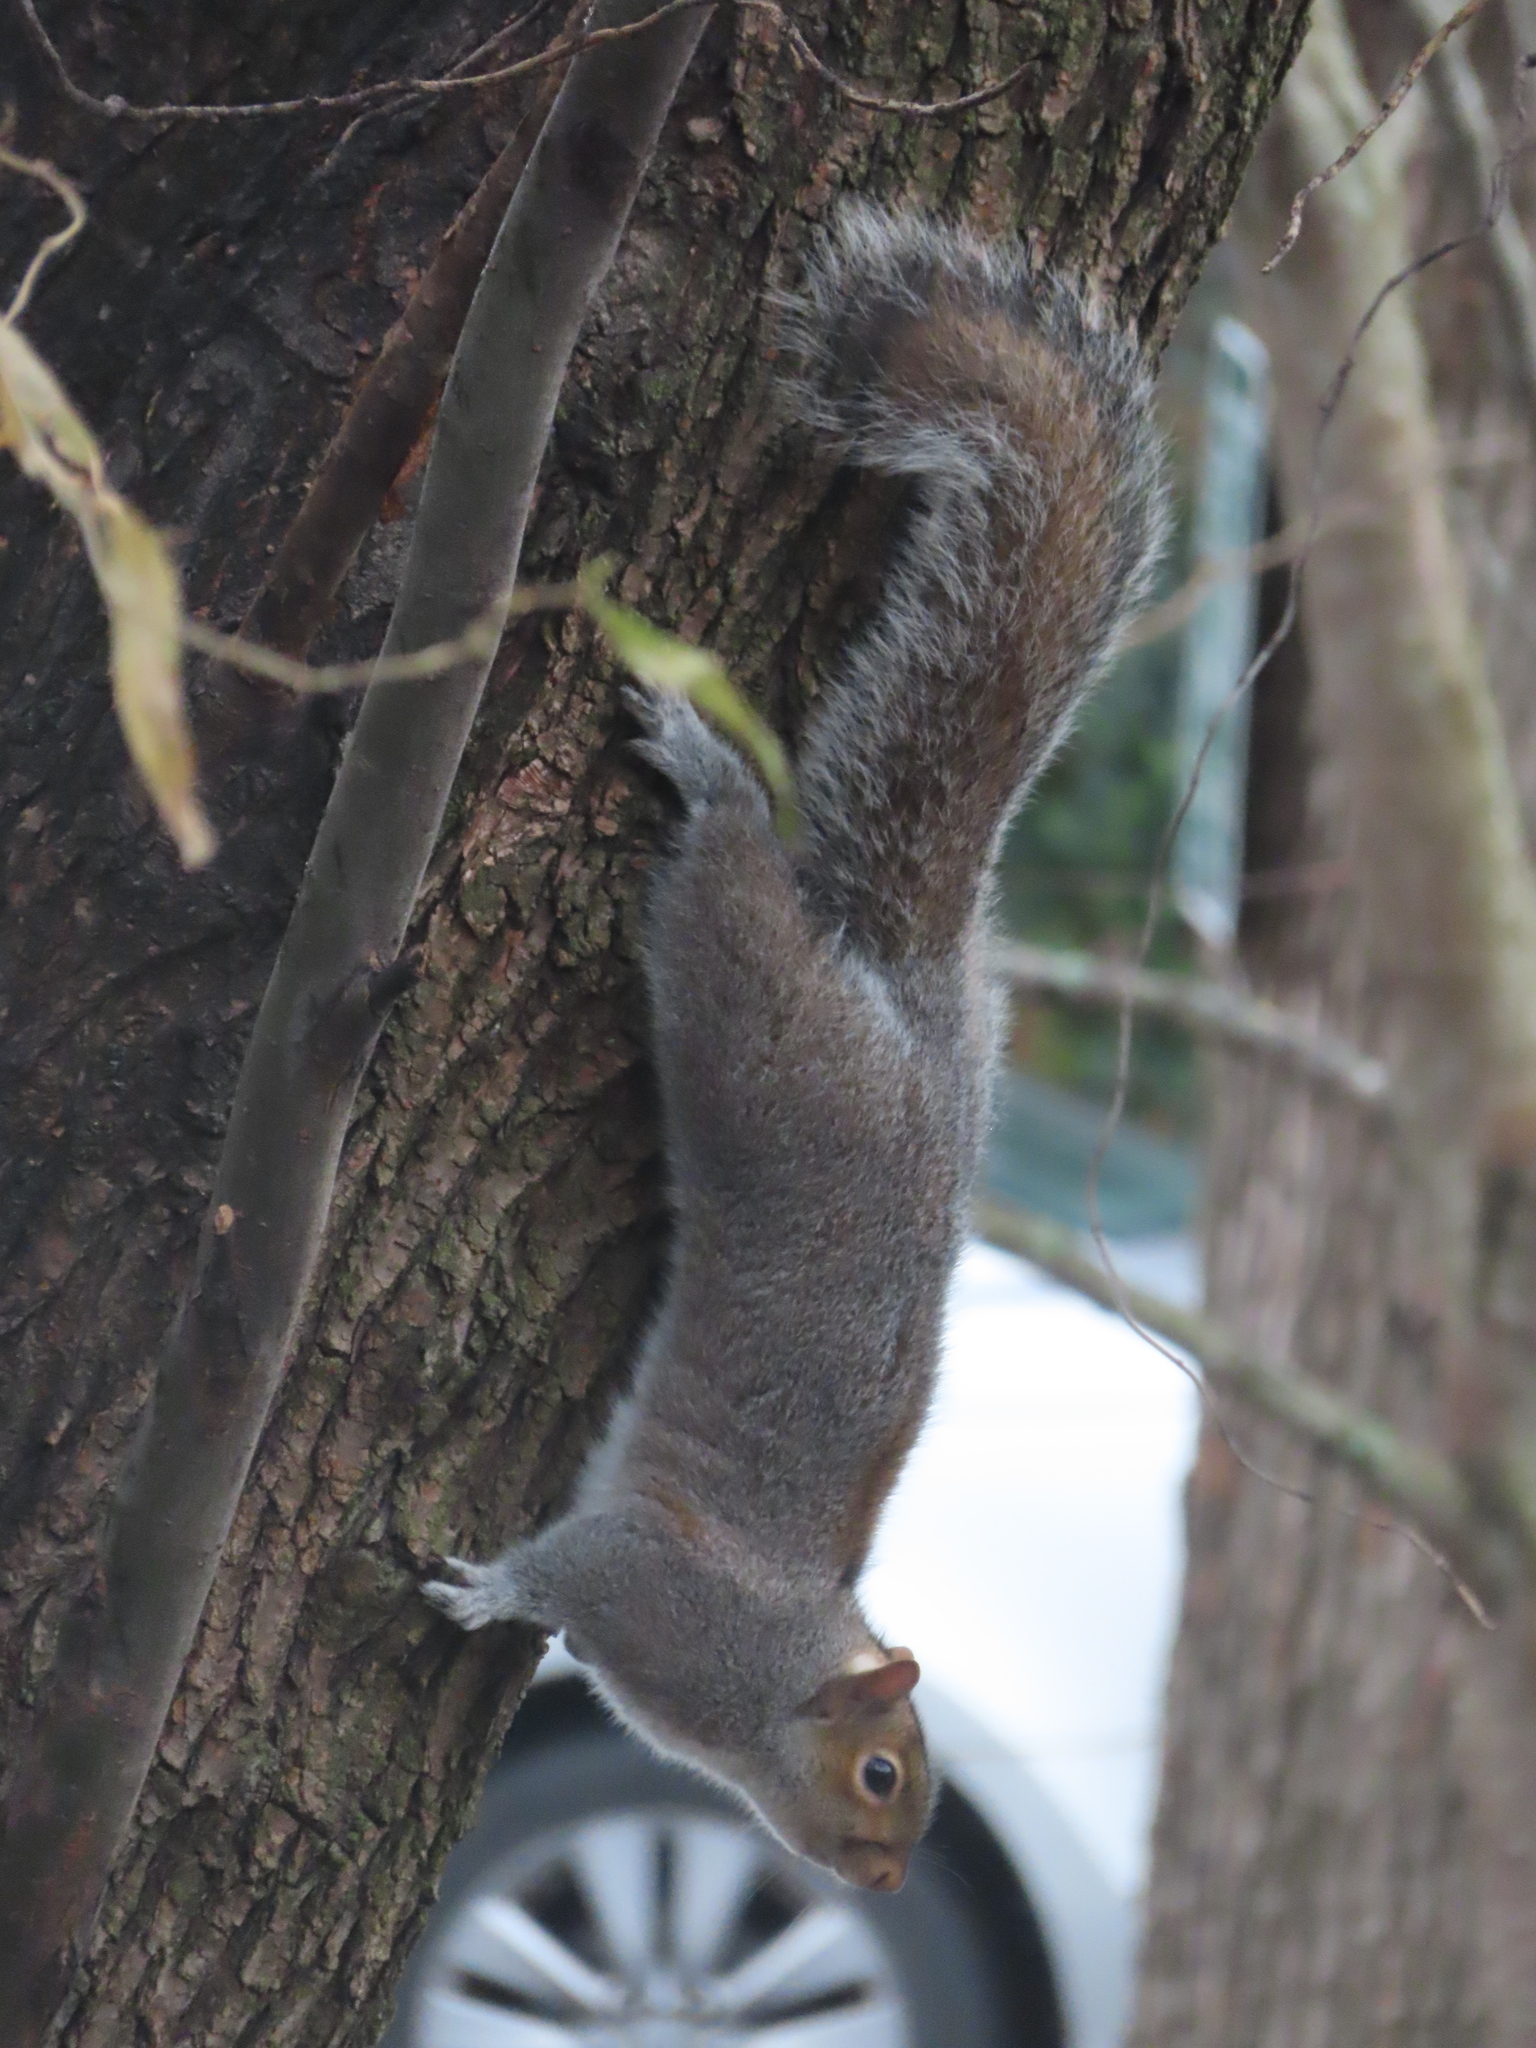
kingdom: Animalia
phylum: Chordata
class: Mammalia
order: Rodentia
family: Sciuridae
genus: Sciurus
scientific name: Sciurus carolinensis
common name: Eastern gray squirrel
